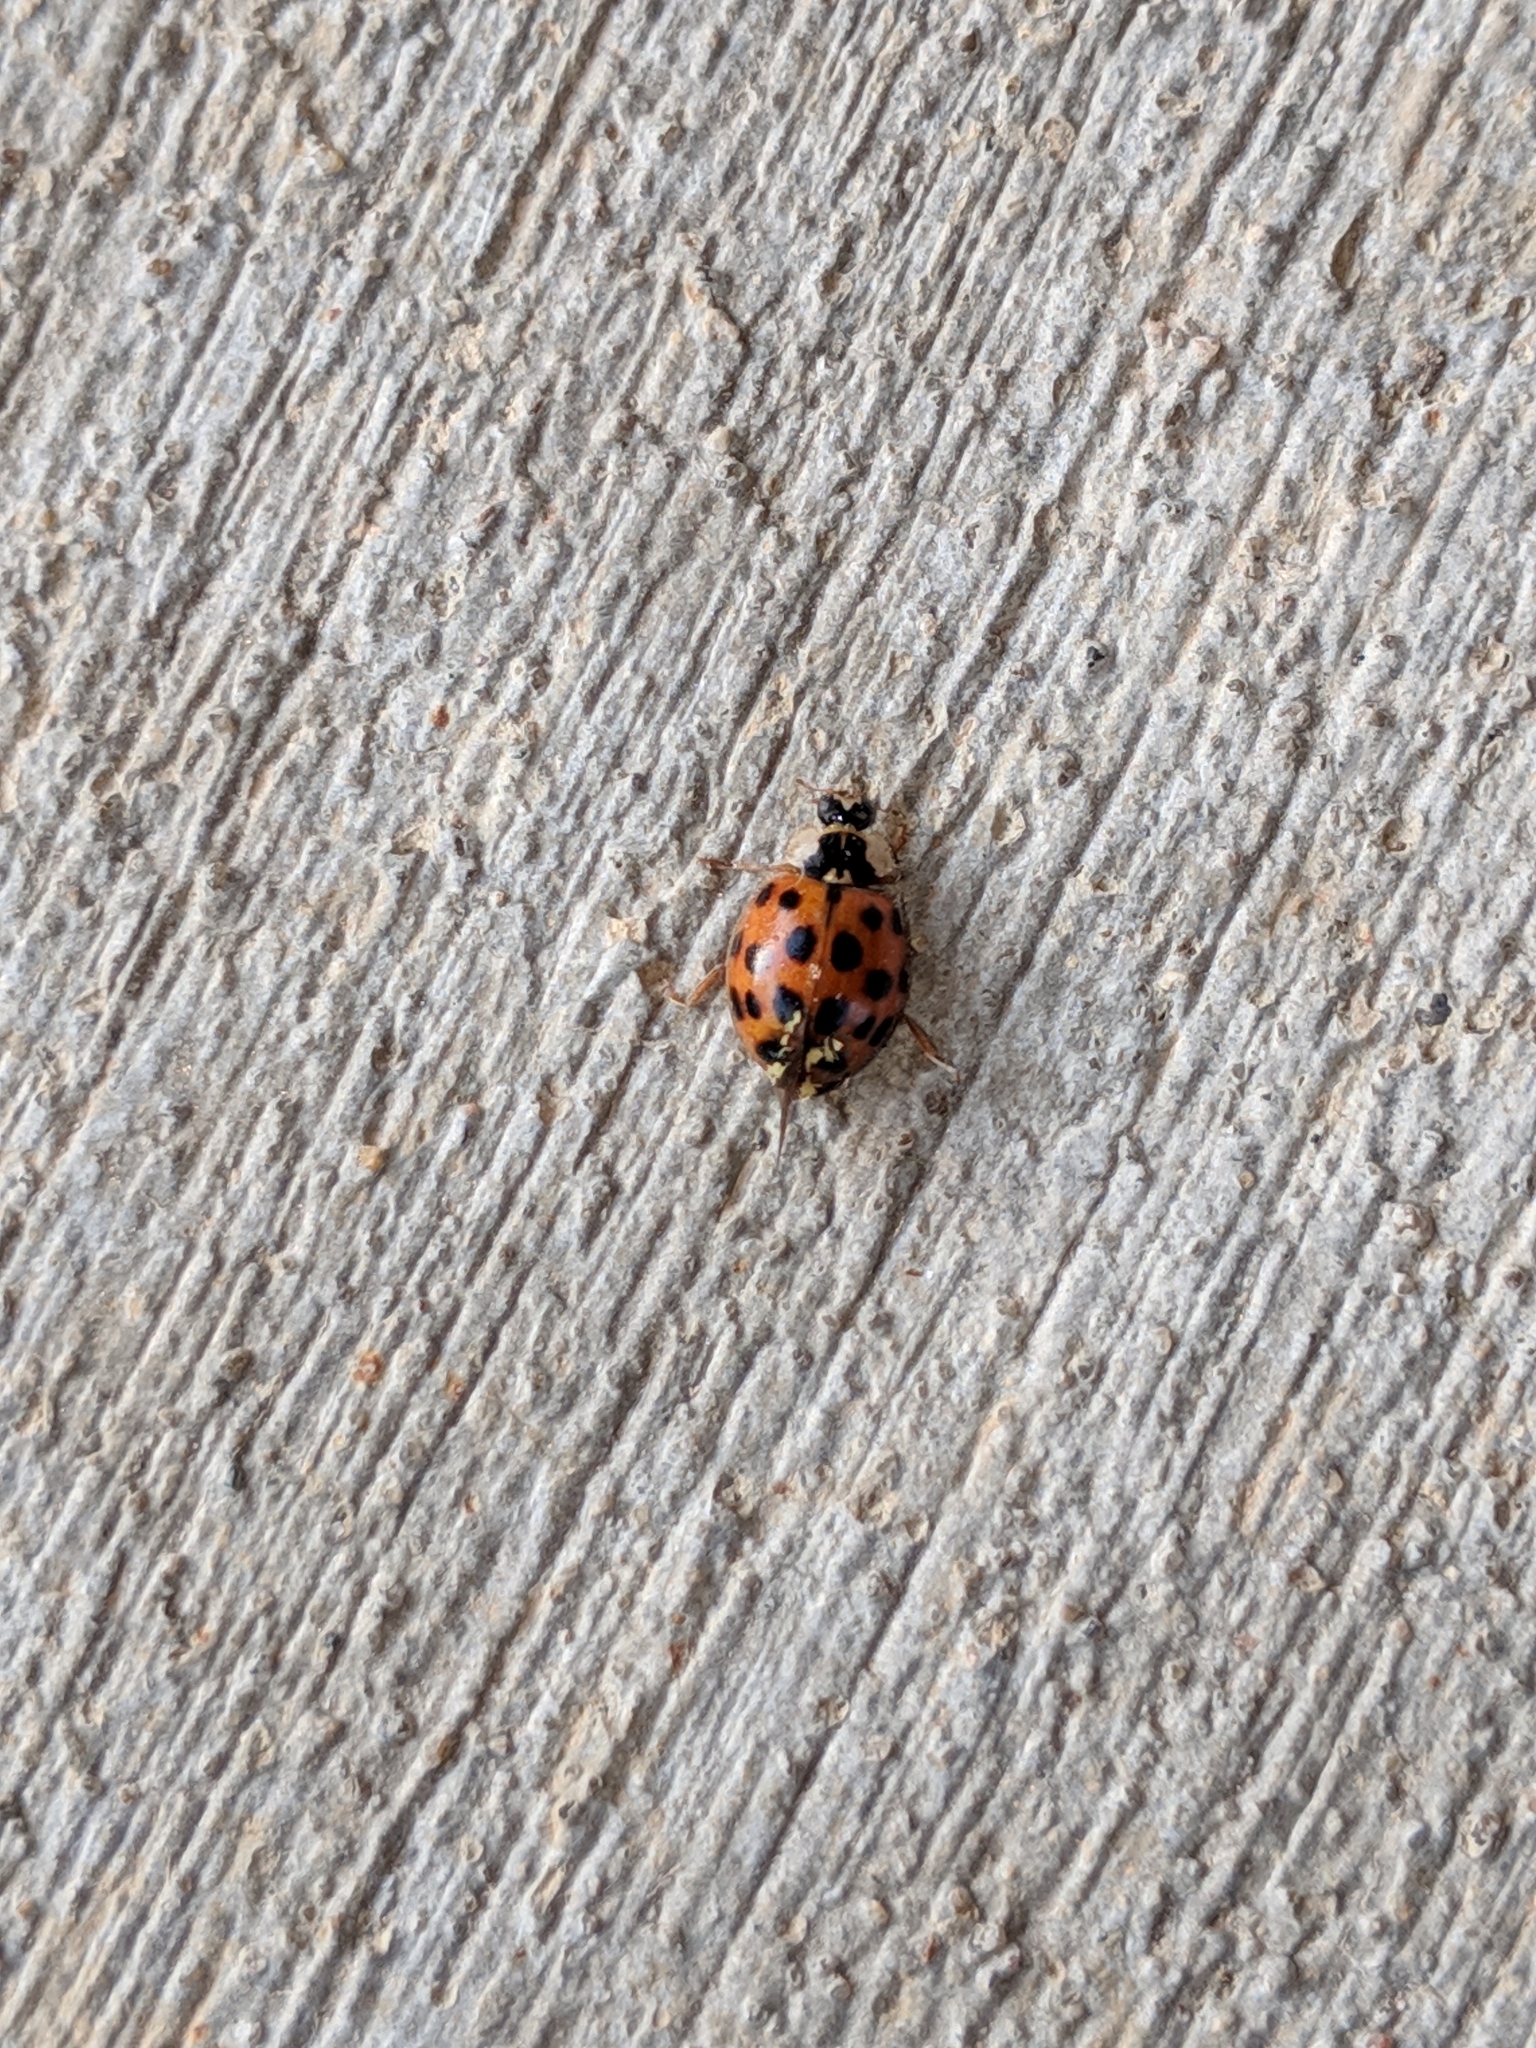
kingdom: Animalia
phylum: Arthropoda
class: Insecta
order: Coleoptera
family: Coccinellidae
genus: Harmonia
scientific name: Harmonia axyridis
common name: Harlequin ladybird
